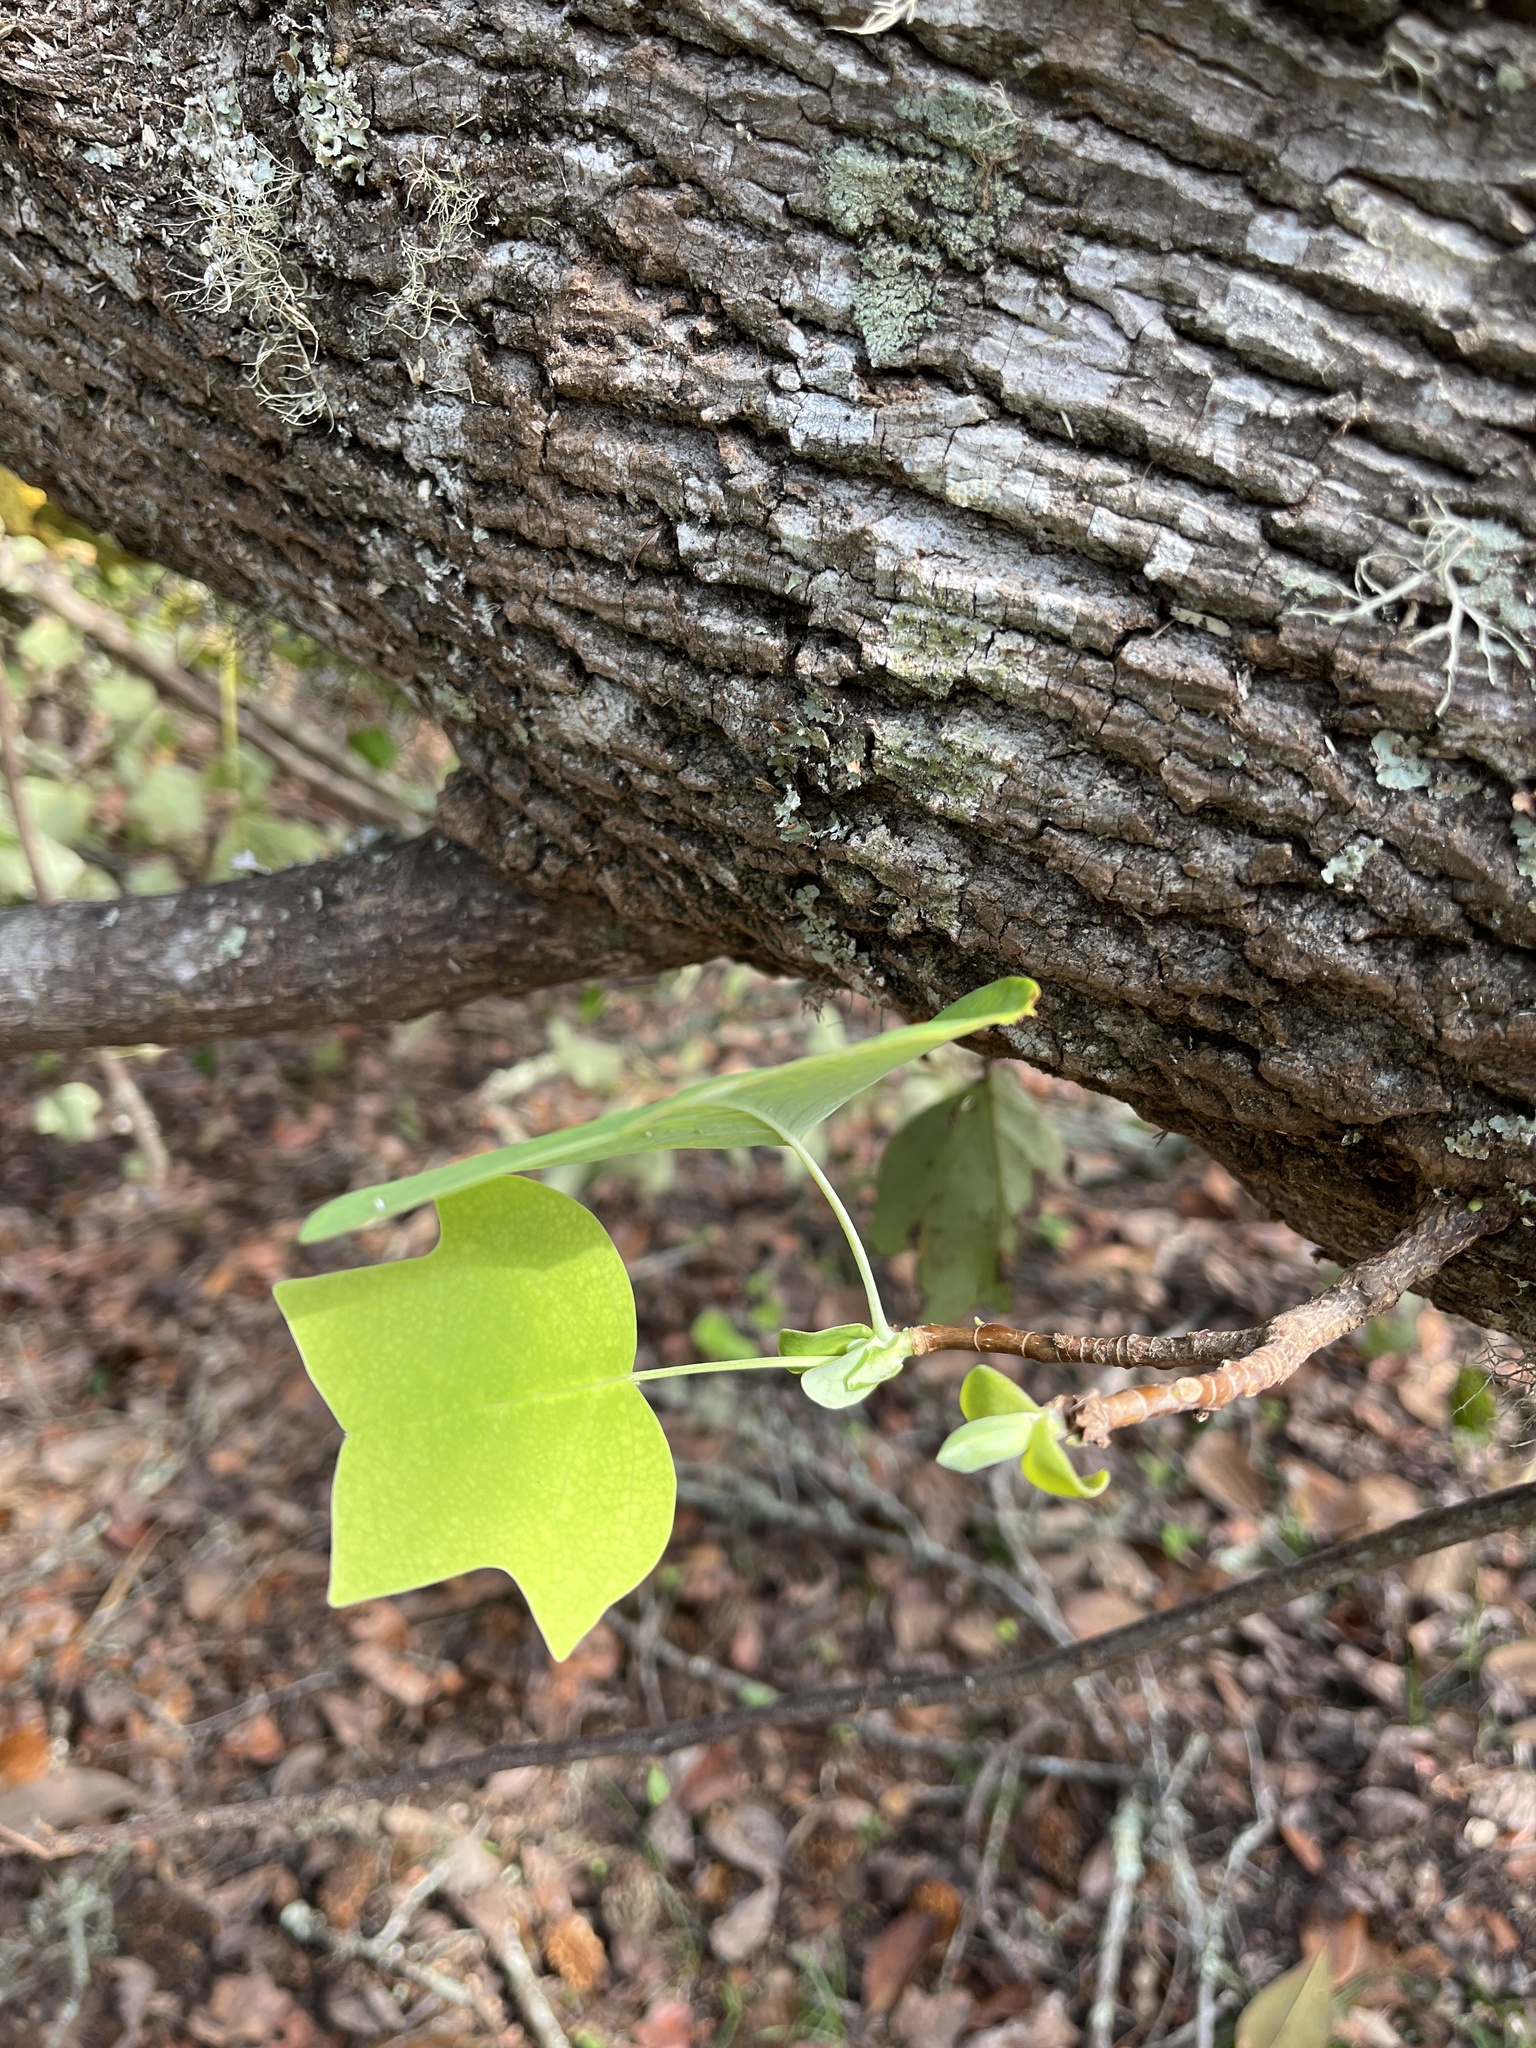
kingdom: Plantae
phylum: Tracheophyta
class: Magnoliopsida
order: Magnoliales
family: Magnoliaceae
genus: Liriodendron
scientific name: Liriodendron tulipifera
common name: Tulip tree
